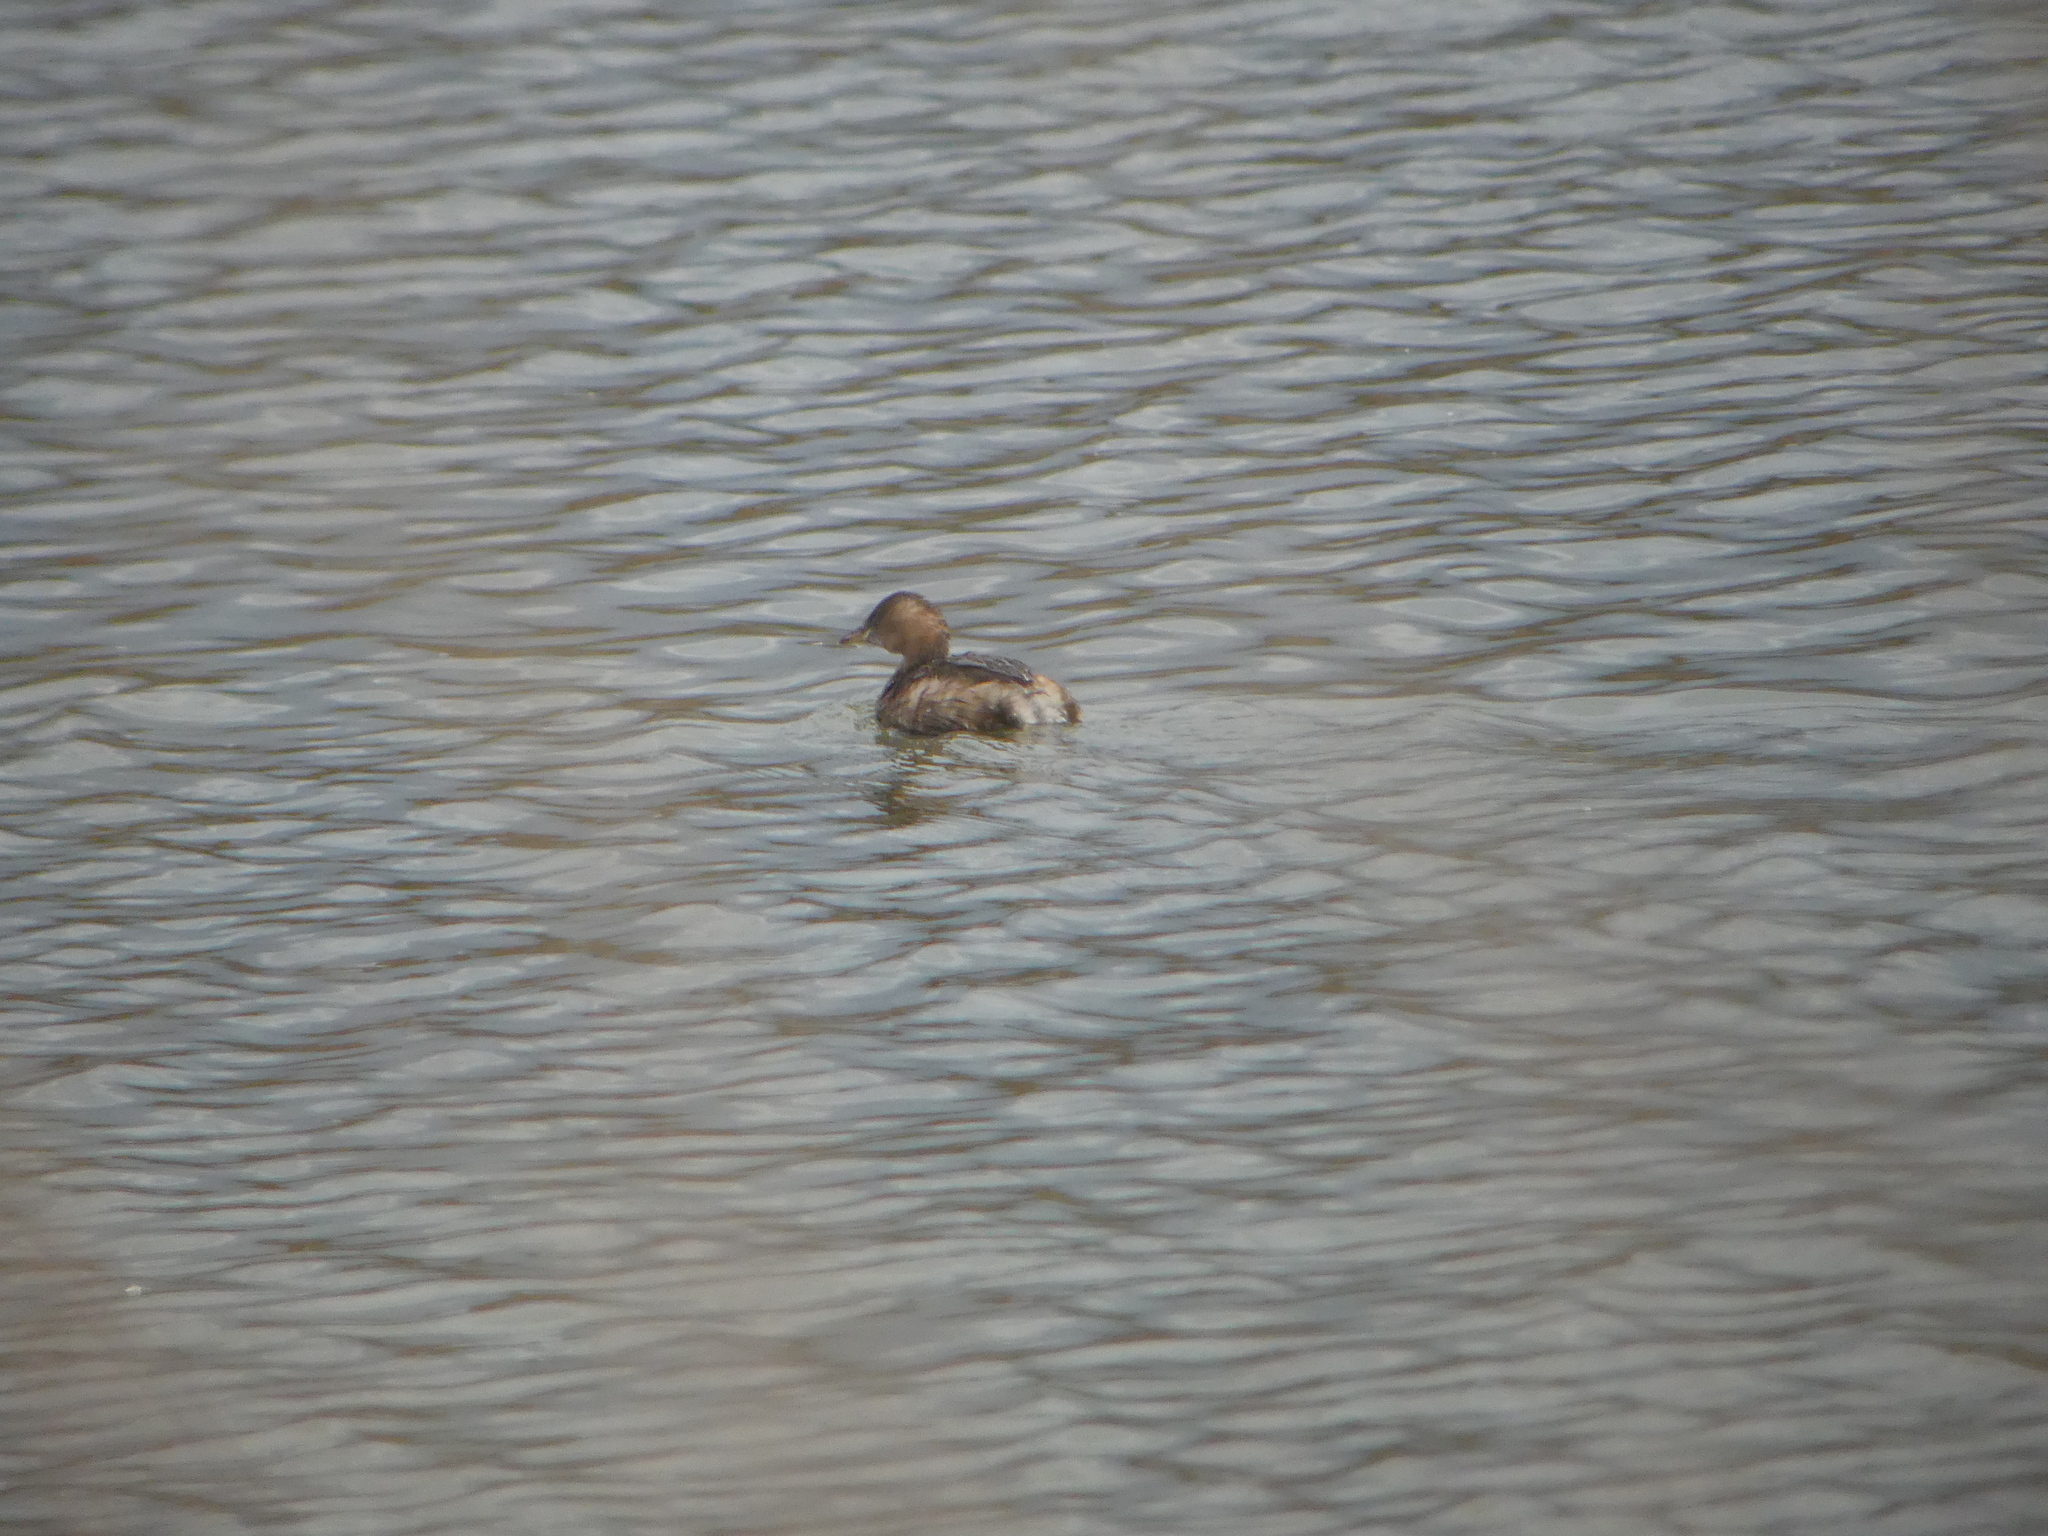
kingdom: Animalia
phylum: Chordata
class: Aves
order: Podicipediformes
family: Podicipedidae
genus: Tachybaptus
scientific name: Tachybaptus ruficollis
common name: Little grebe
